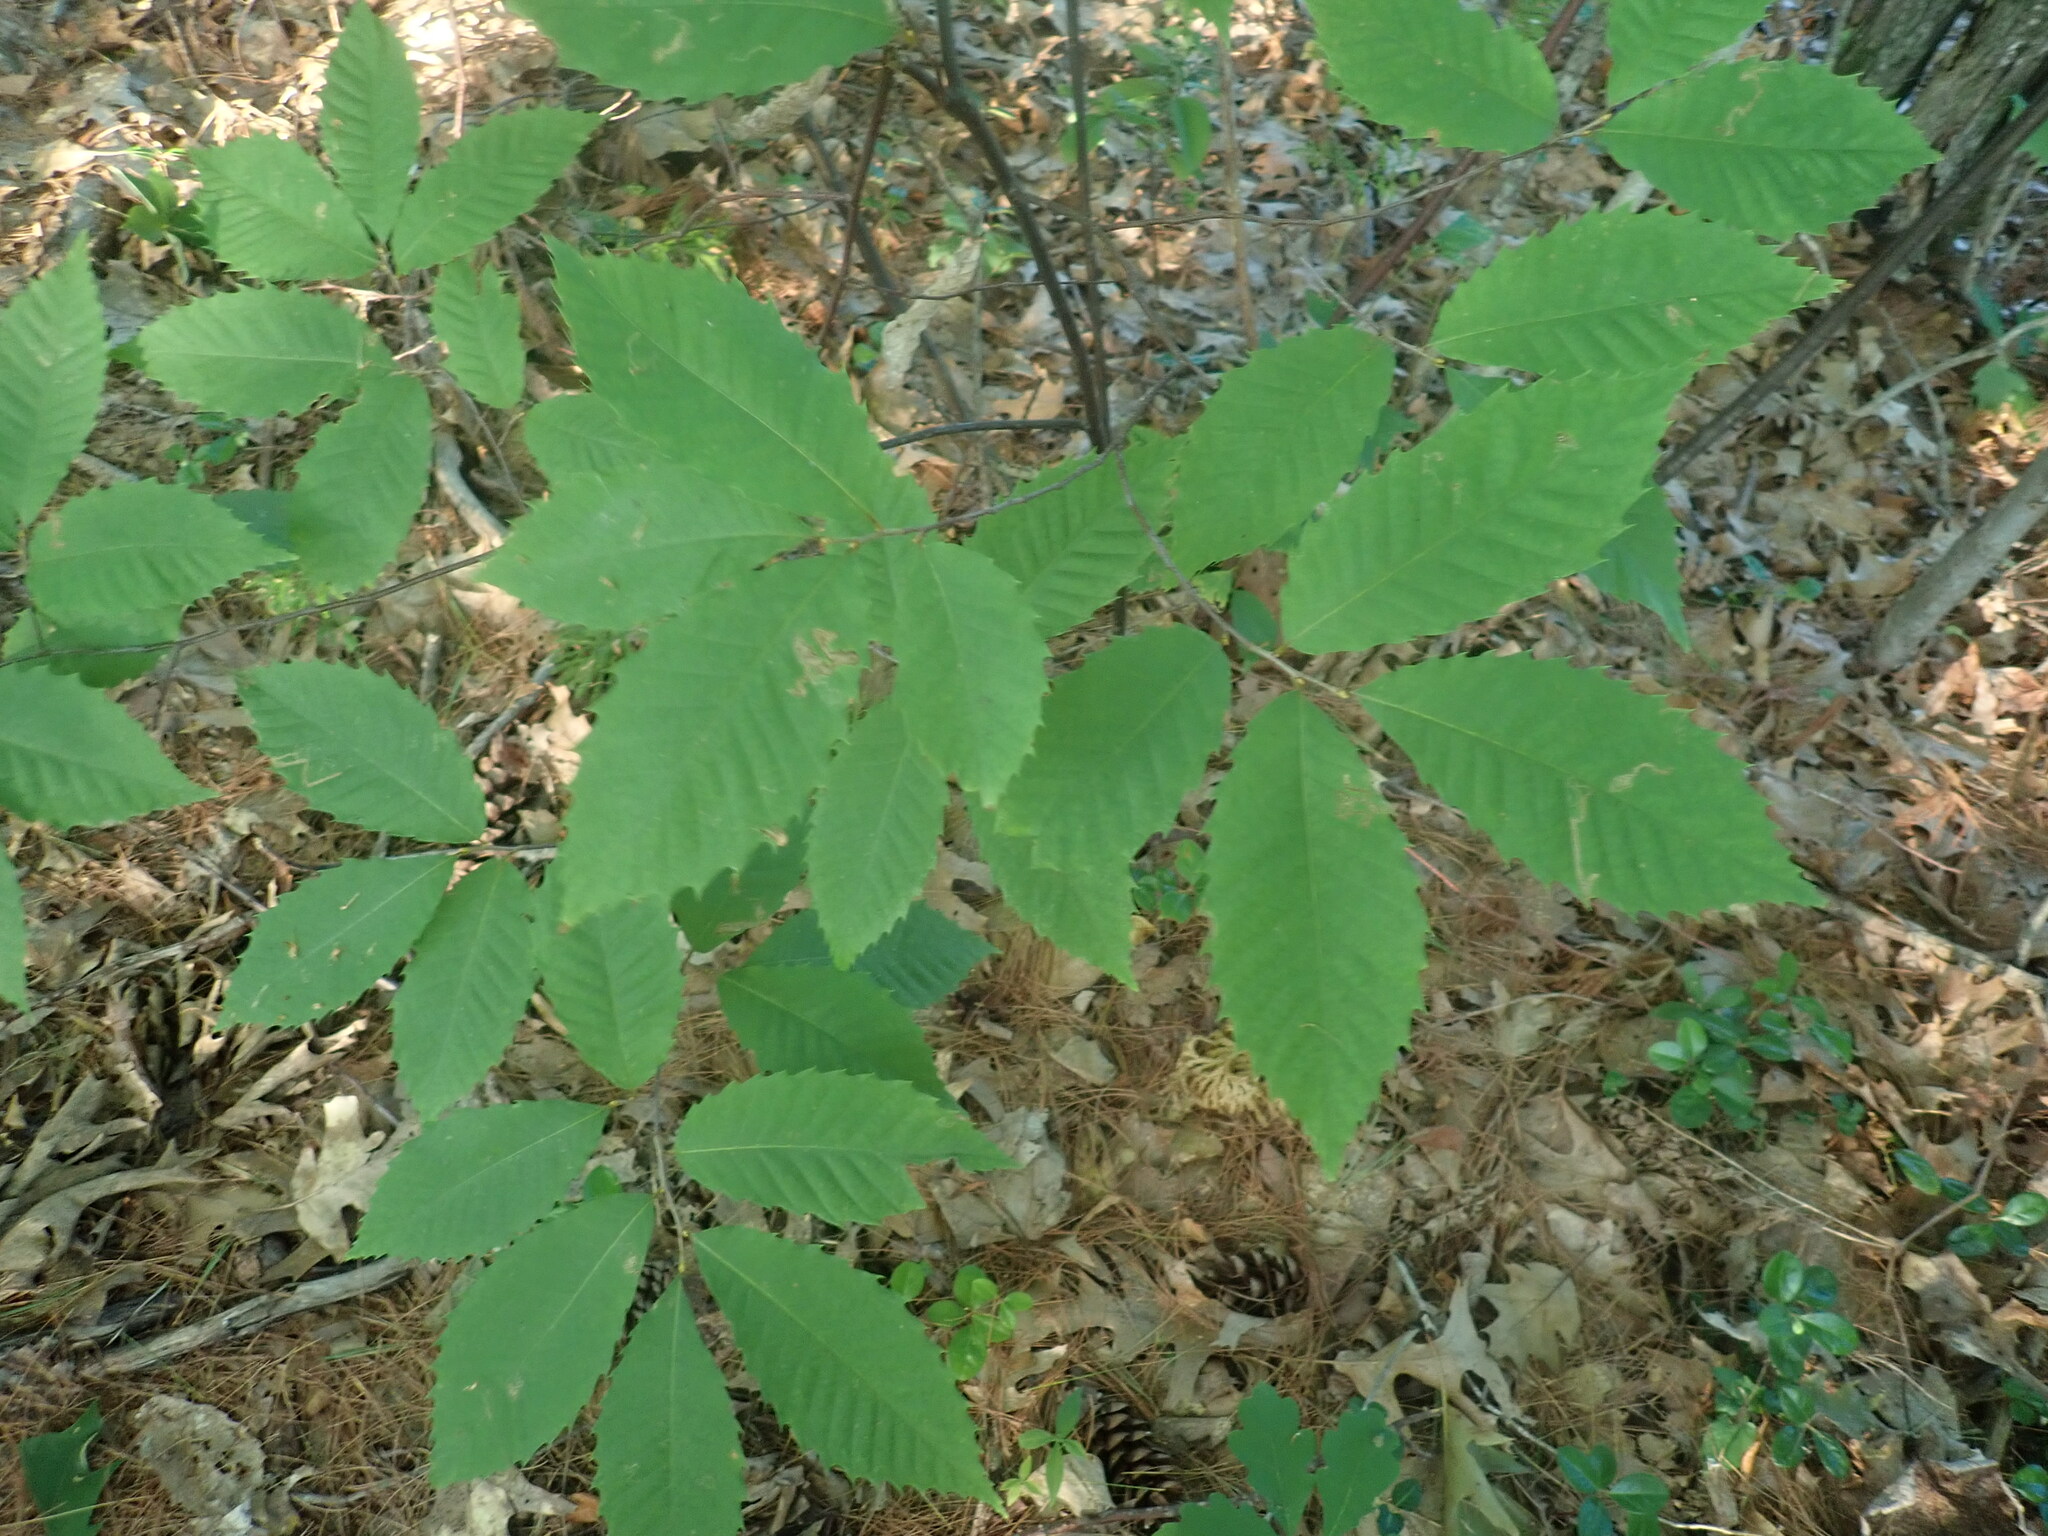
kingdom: Plantae
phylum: Tracheophyta
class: Magnoliopsida
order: Fagales
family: Fagaceae
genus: Castanea
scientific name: Castanea dentata
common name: American chestnut
